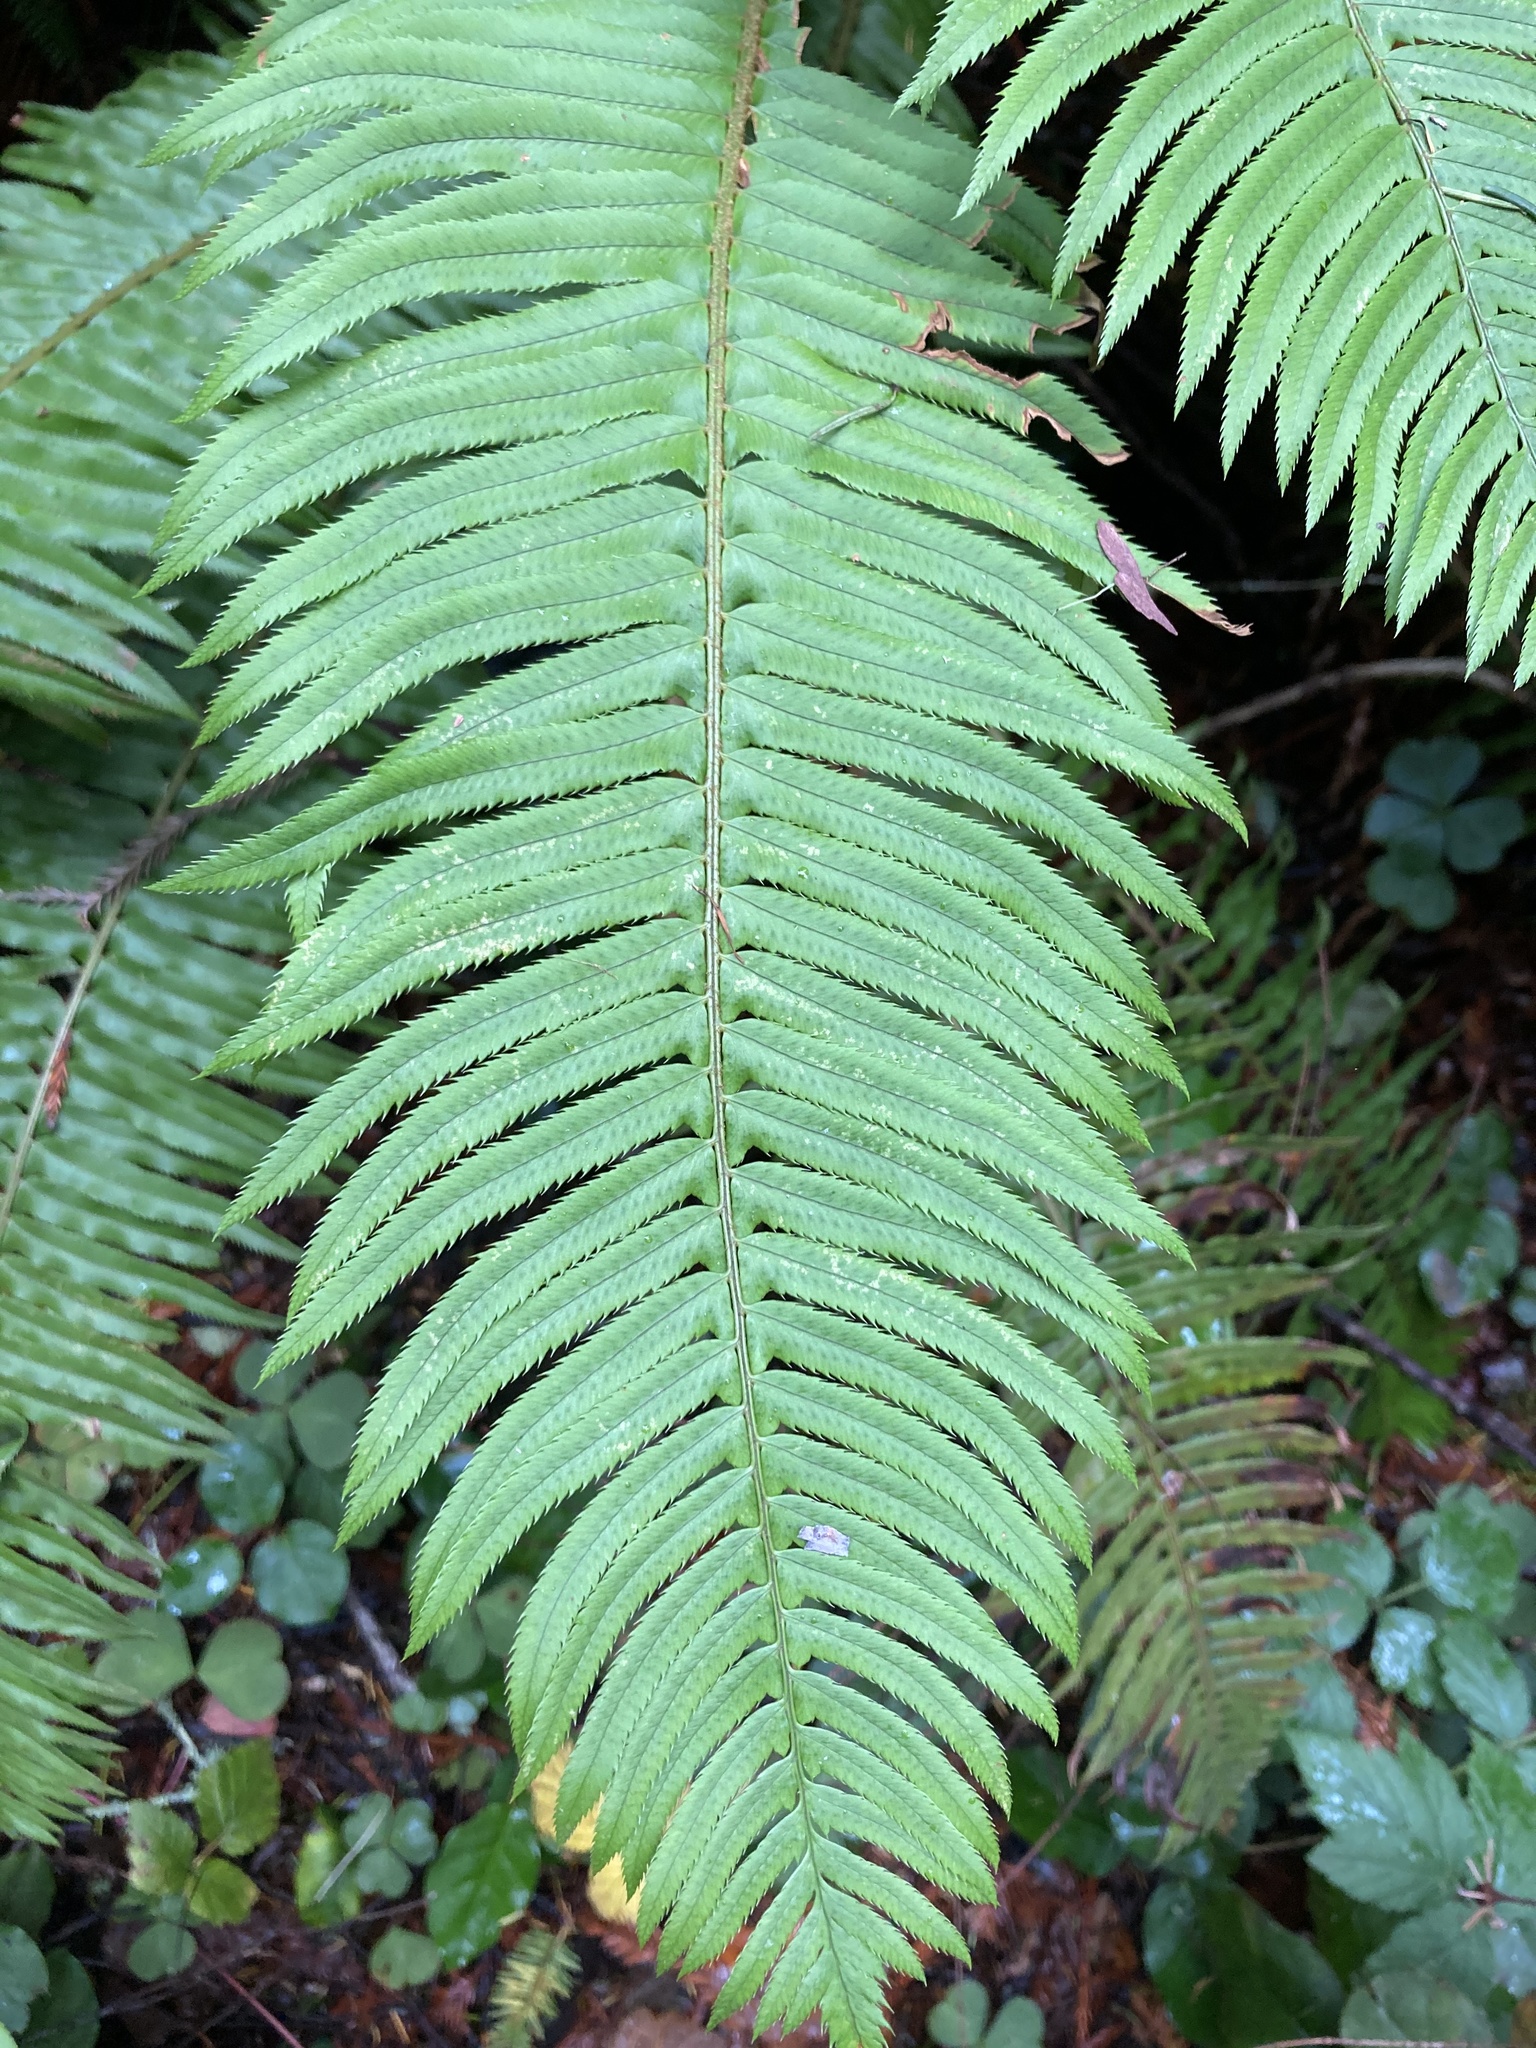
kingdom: Plantae
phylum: Tracheophyta
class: Polypodiopsida
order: Polypodiales
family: Dryopteridaceae
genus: Polystichum
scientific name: Polystichum munitum
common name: Western sword-fern
